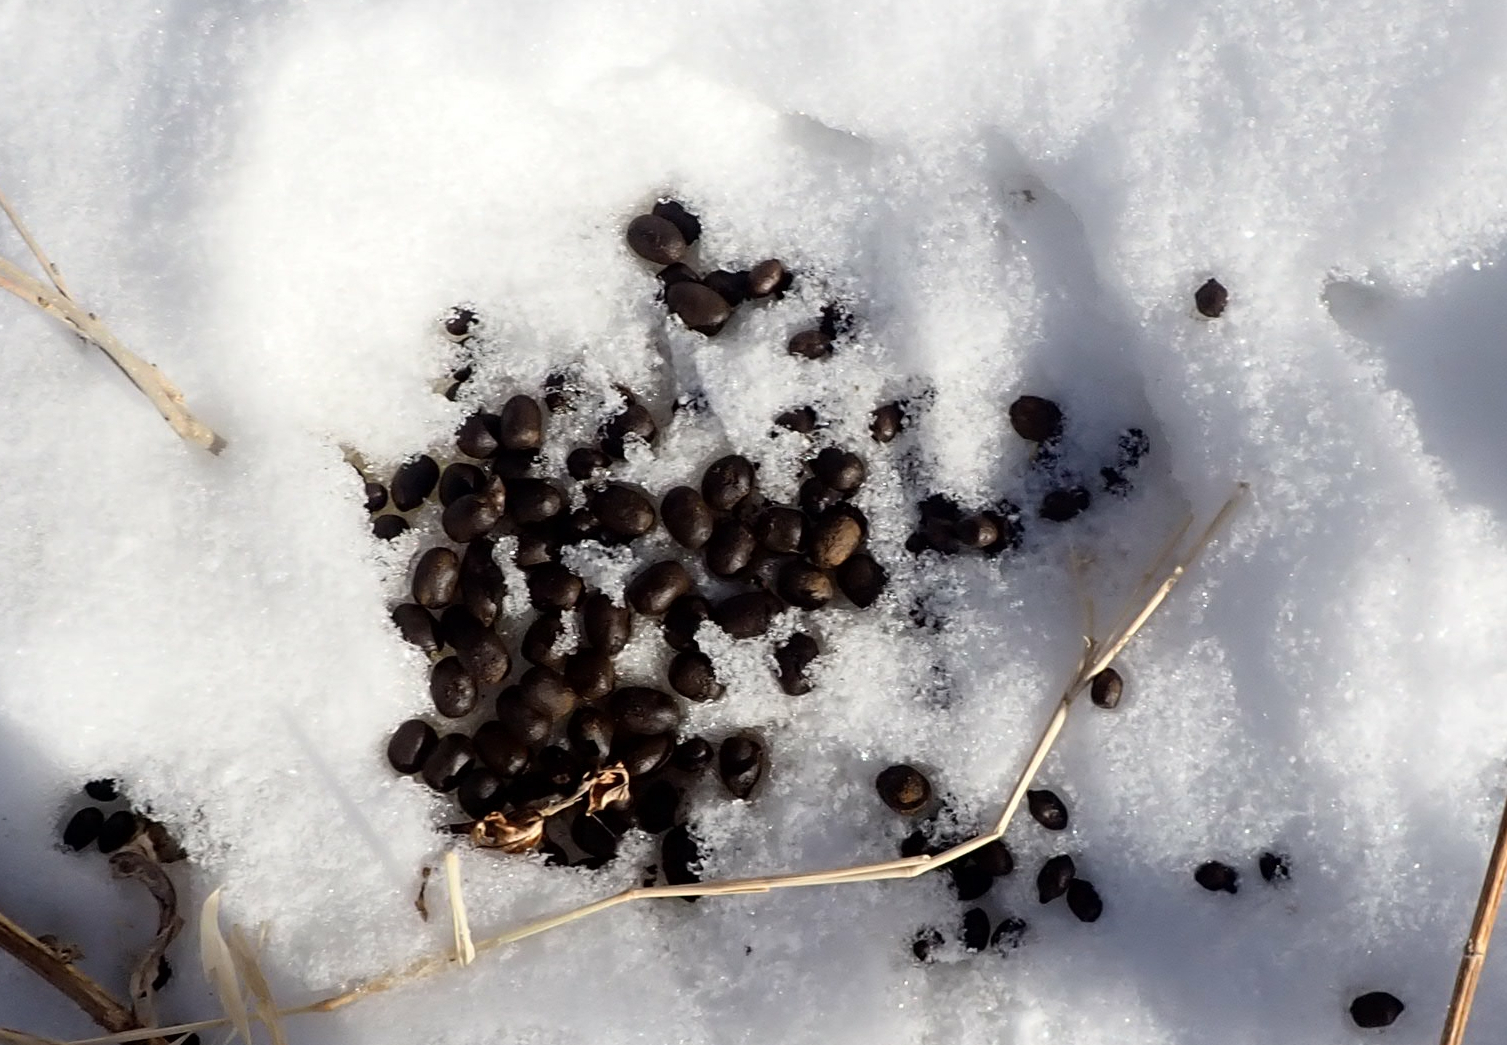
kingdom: Animalia
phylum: Chordata
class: Mammalia
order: Artiodactyla
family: Cervidae
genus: Odocoileus
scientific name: Odocoileus virginianus
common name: White-tailed deer
